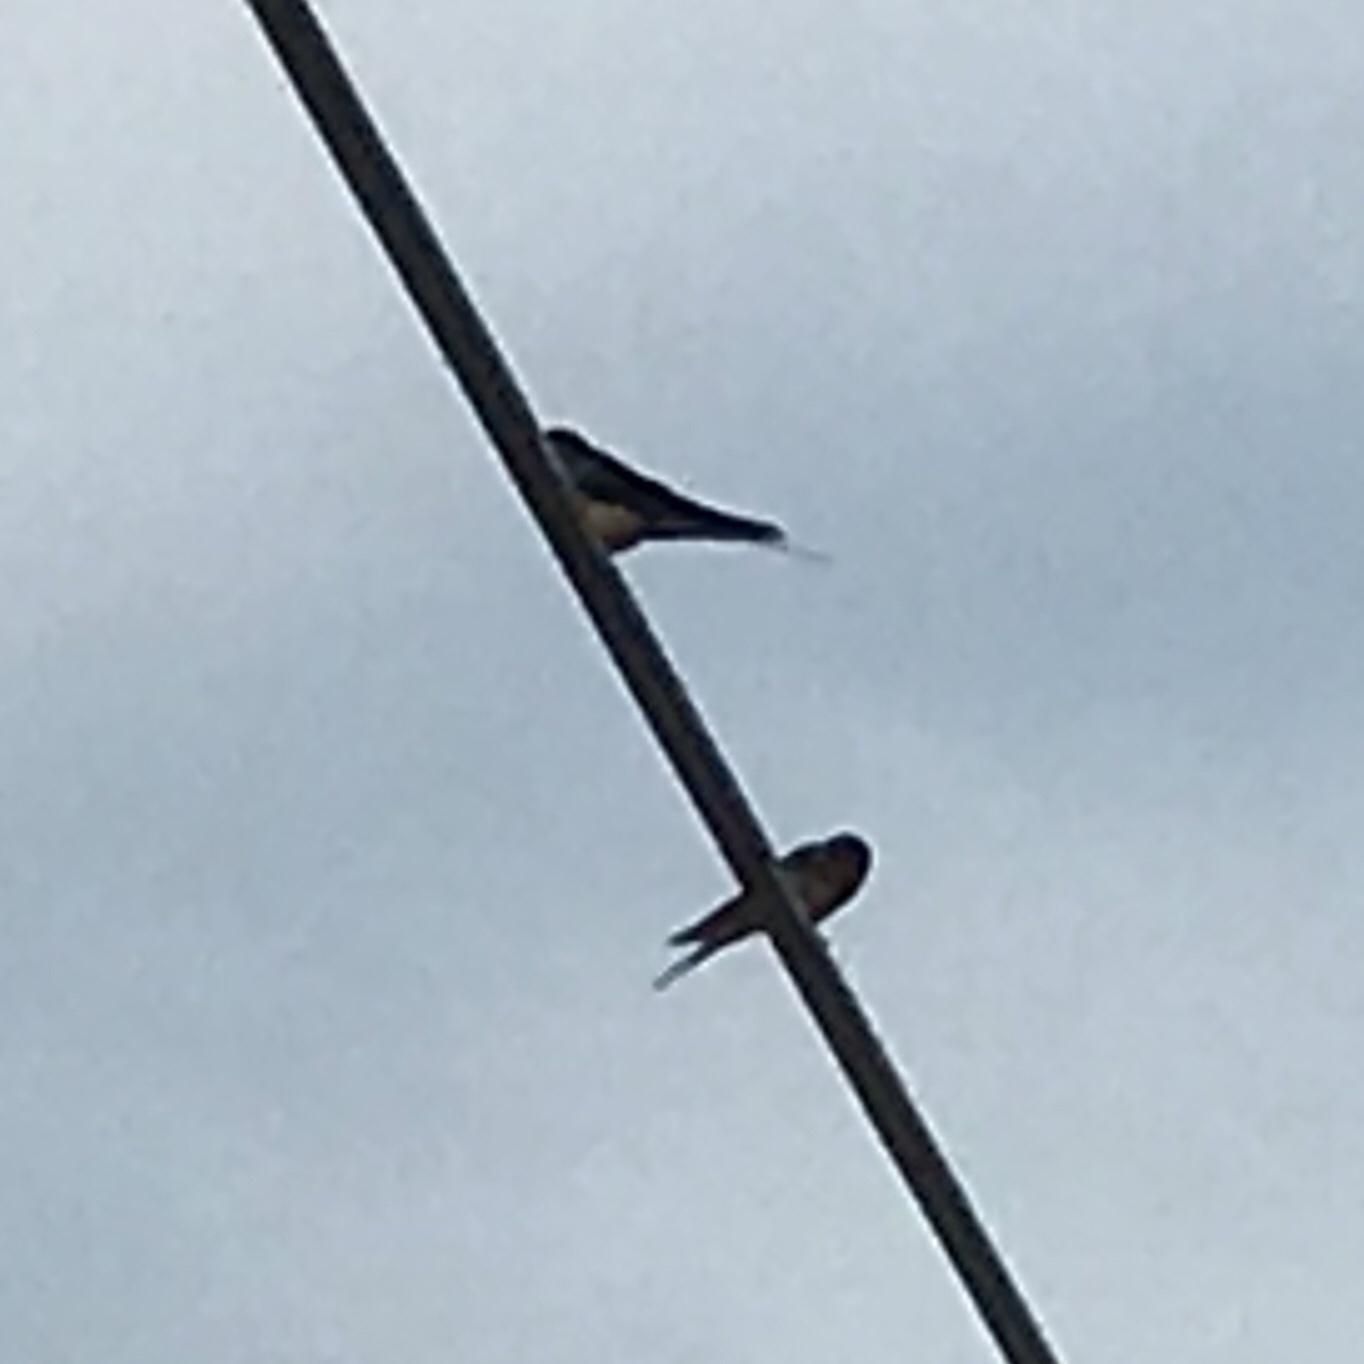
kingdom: Animalia
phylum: Chordata
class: Aves
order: Passeriformes
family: Hirundinidae
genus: Tachycineta
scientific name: Tachycineta bicolor
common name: Tree swallow
